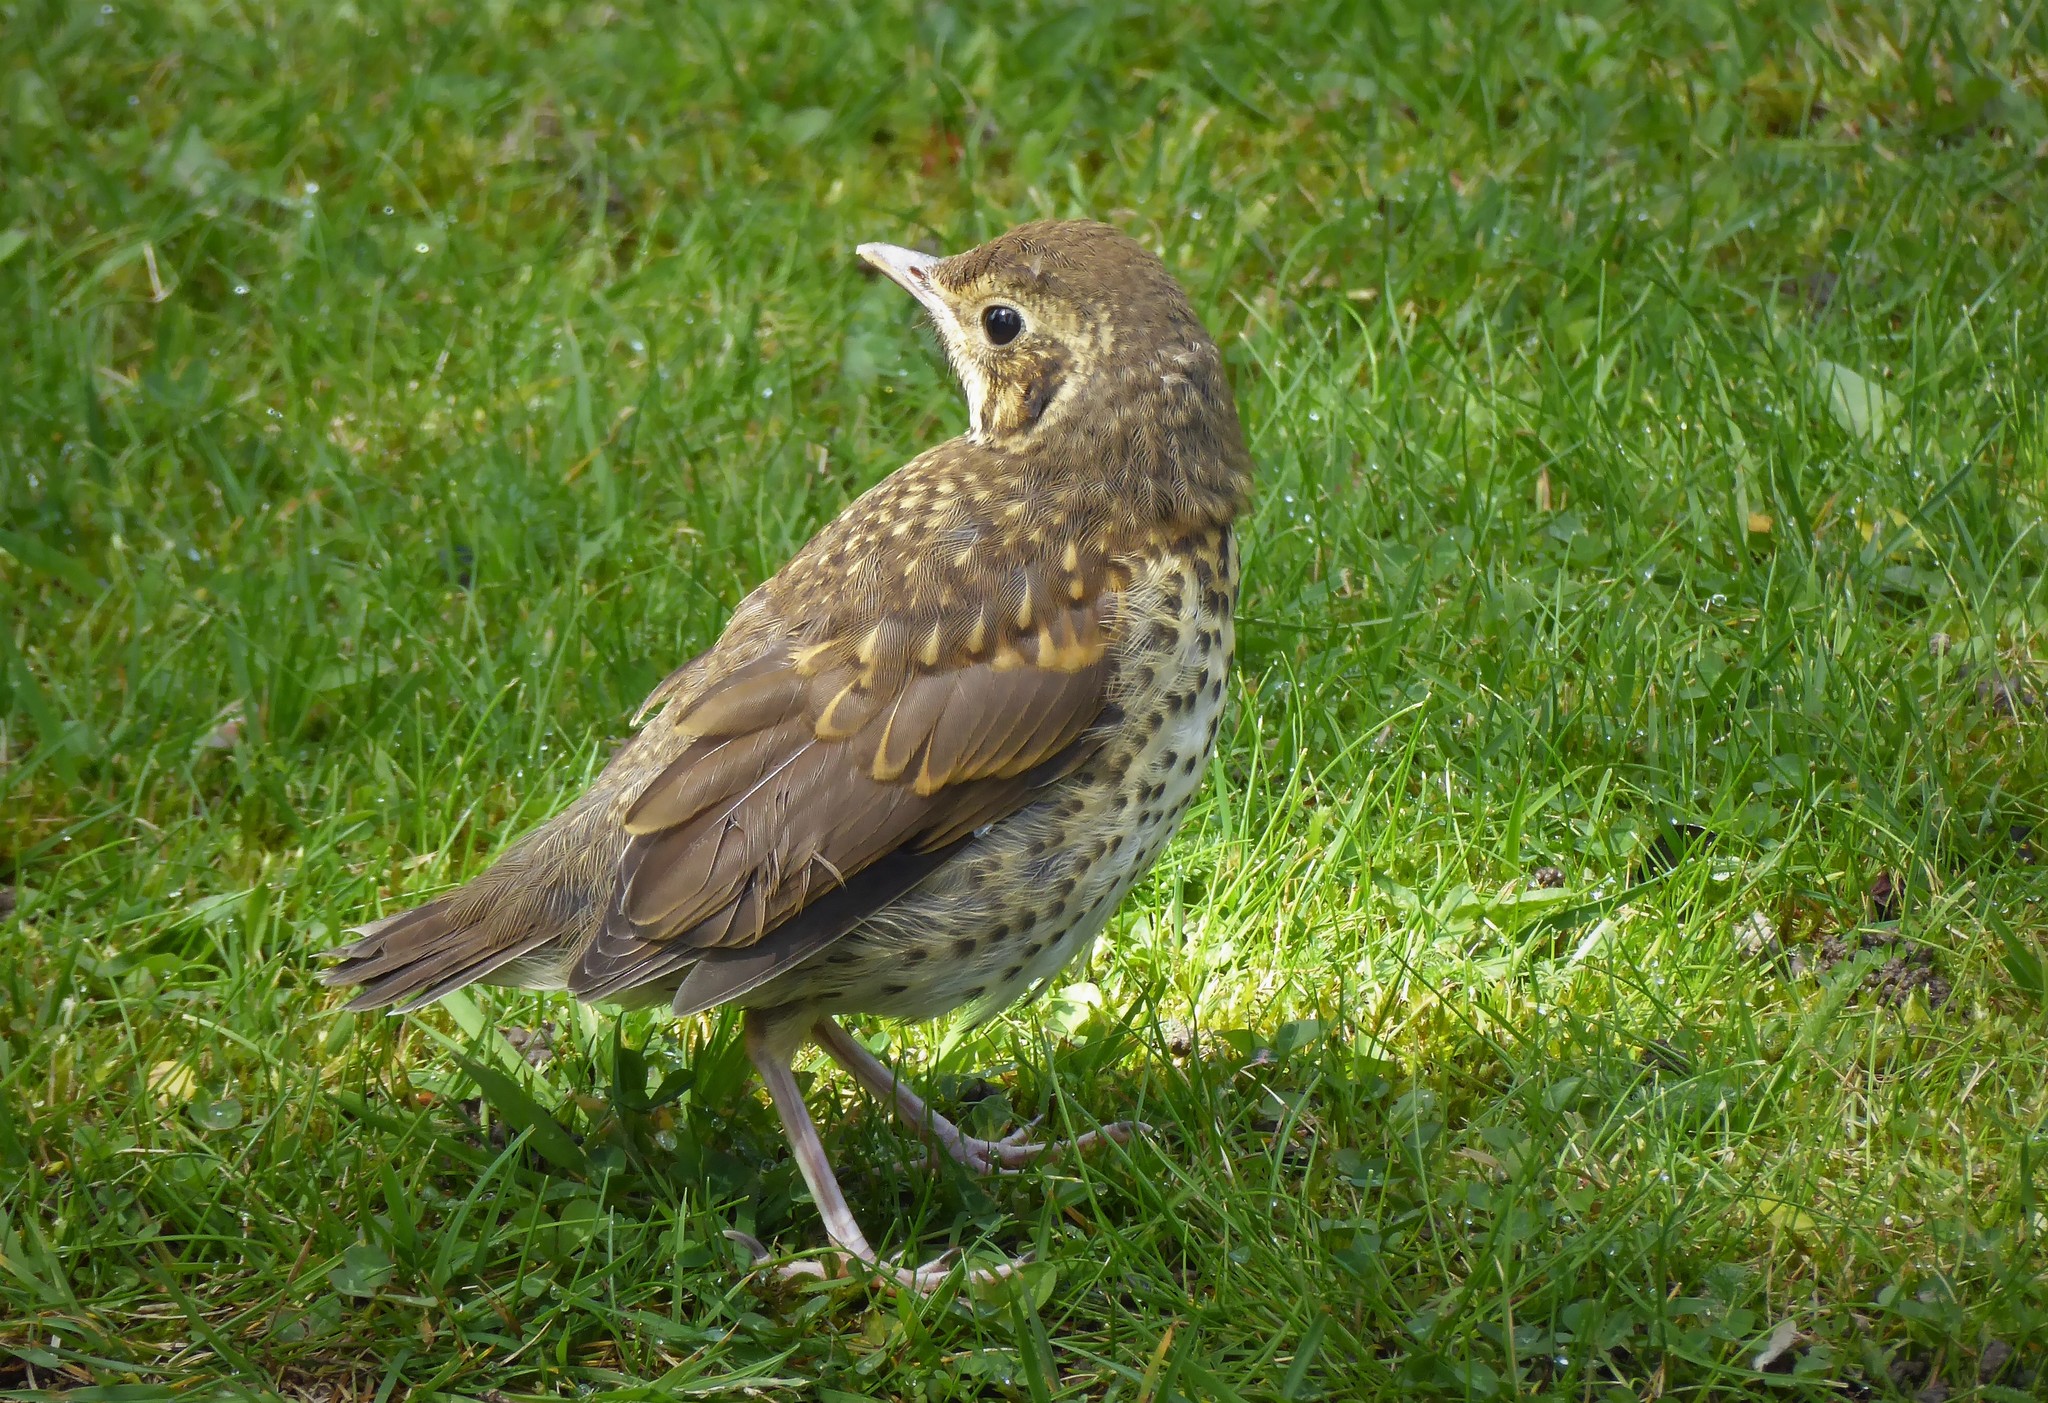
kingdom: Animalia
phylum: Chordata
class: Aves
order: Passeriformes
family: Turdidae
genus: Turdus
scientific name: Turdus philomelos
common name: Song thrush
